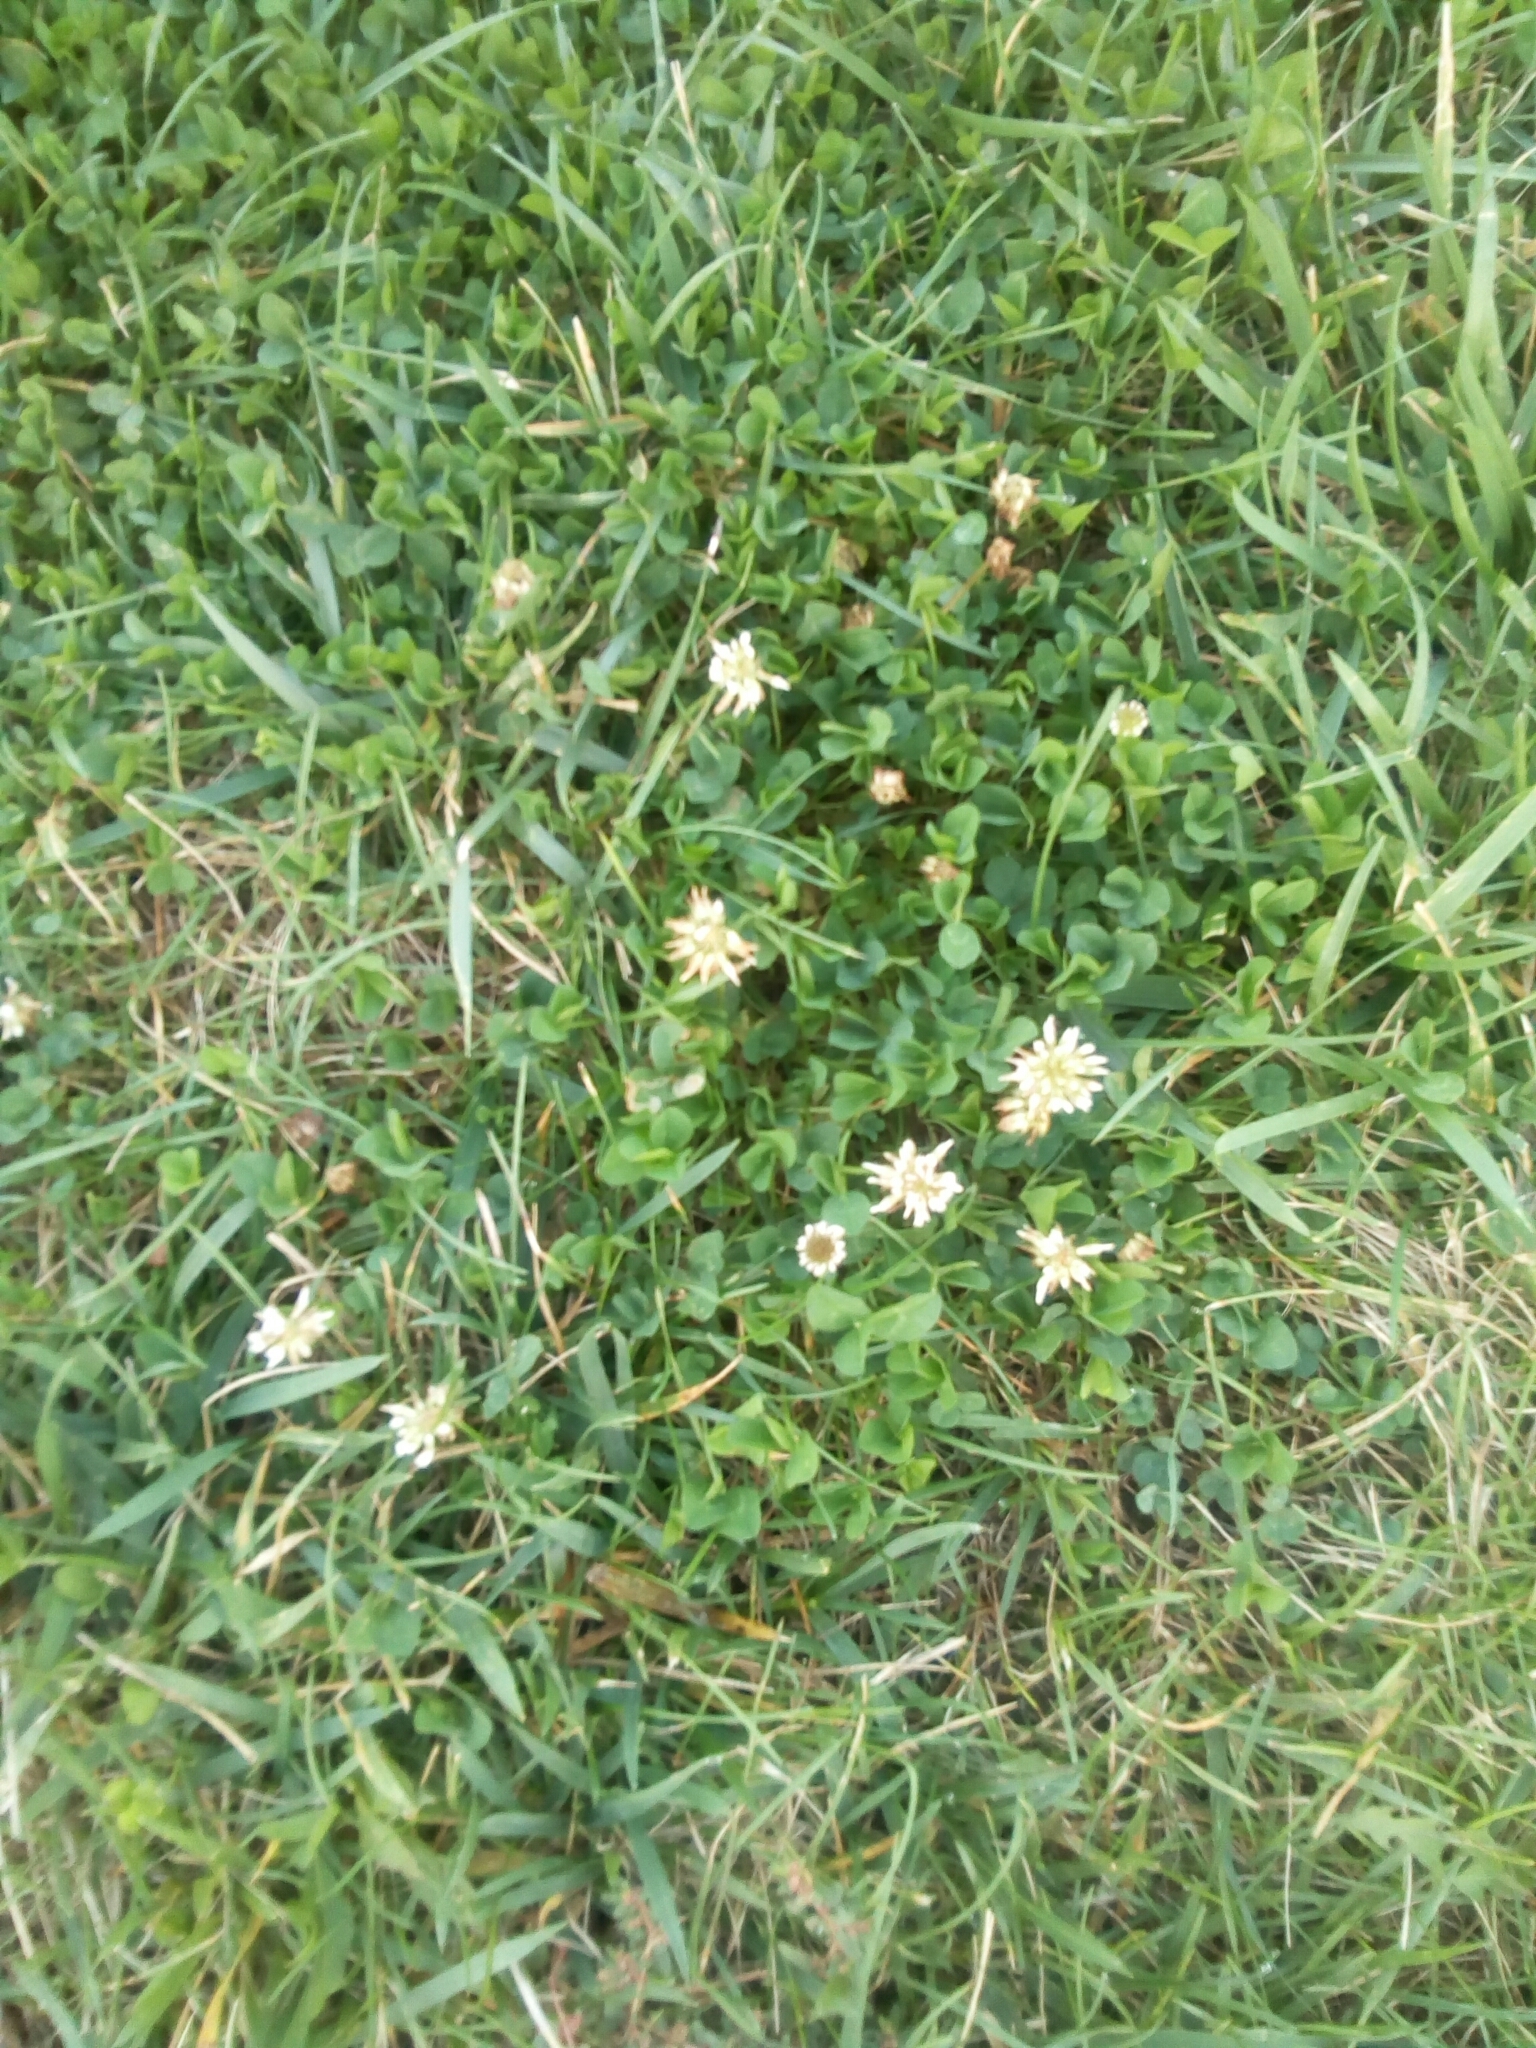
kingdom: Plantae
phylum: Tracheophyta
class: Magnoliopsida
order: Fabales
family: Fabaceae
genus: Trifolium
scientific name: Trifolium repens
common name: White clover
